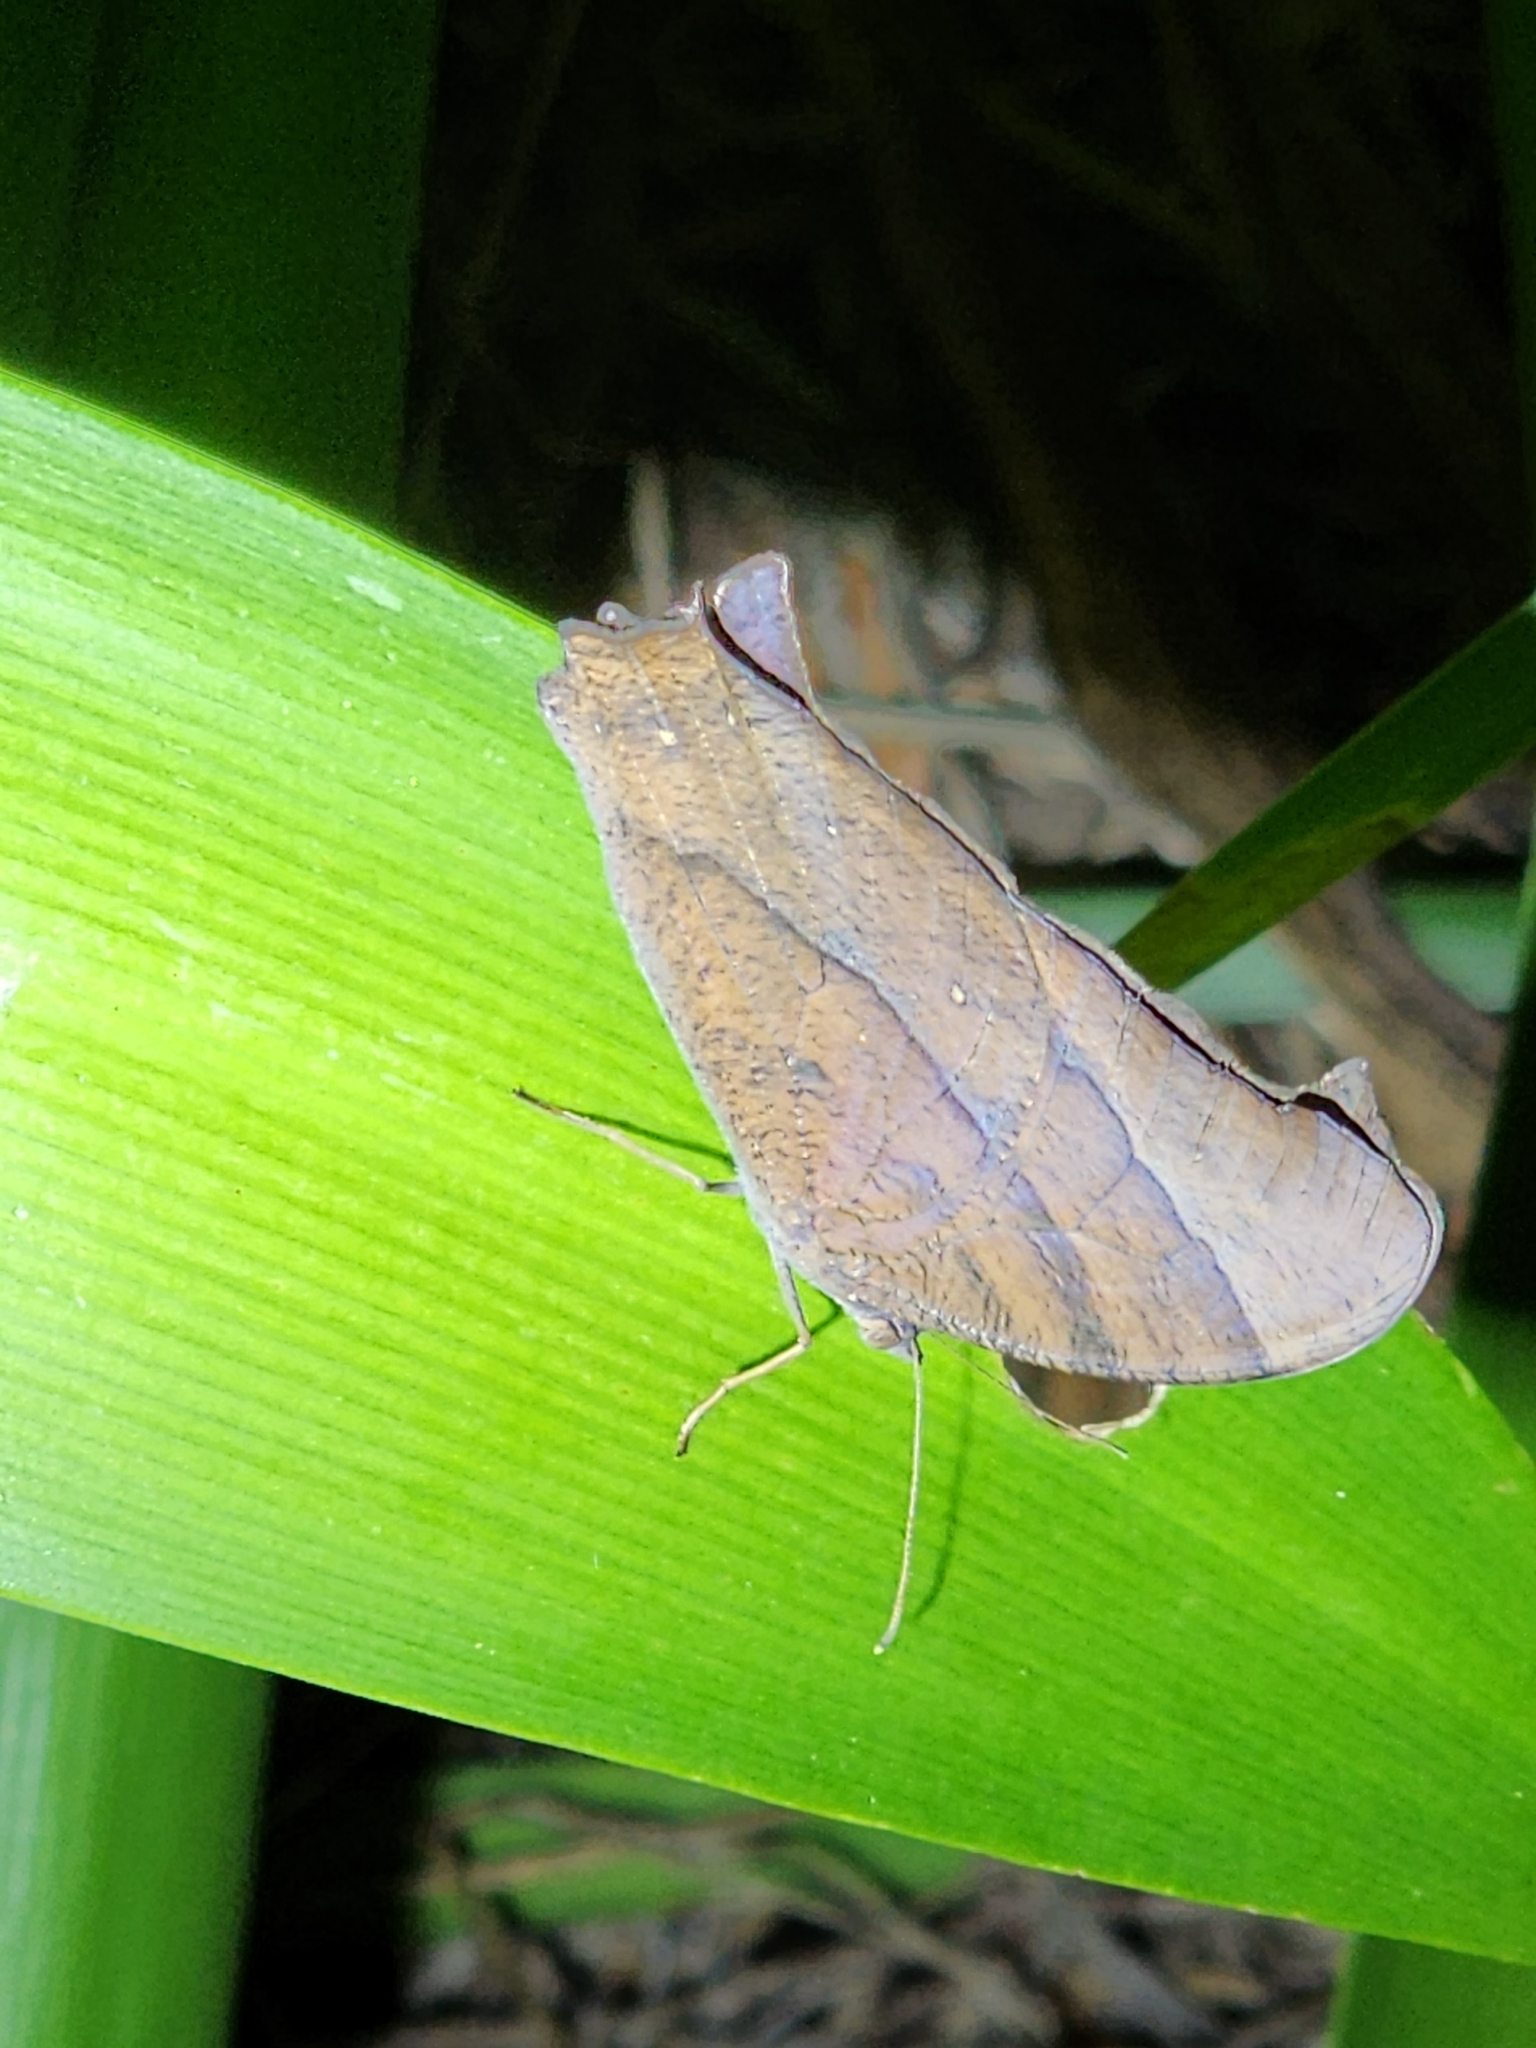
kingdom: Animalia
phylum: Arthropoda
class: Insecta
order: Lepidoptera
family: Nymphalidae
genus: Melanitis
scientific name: Melanitis leda
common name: Twilight brown
